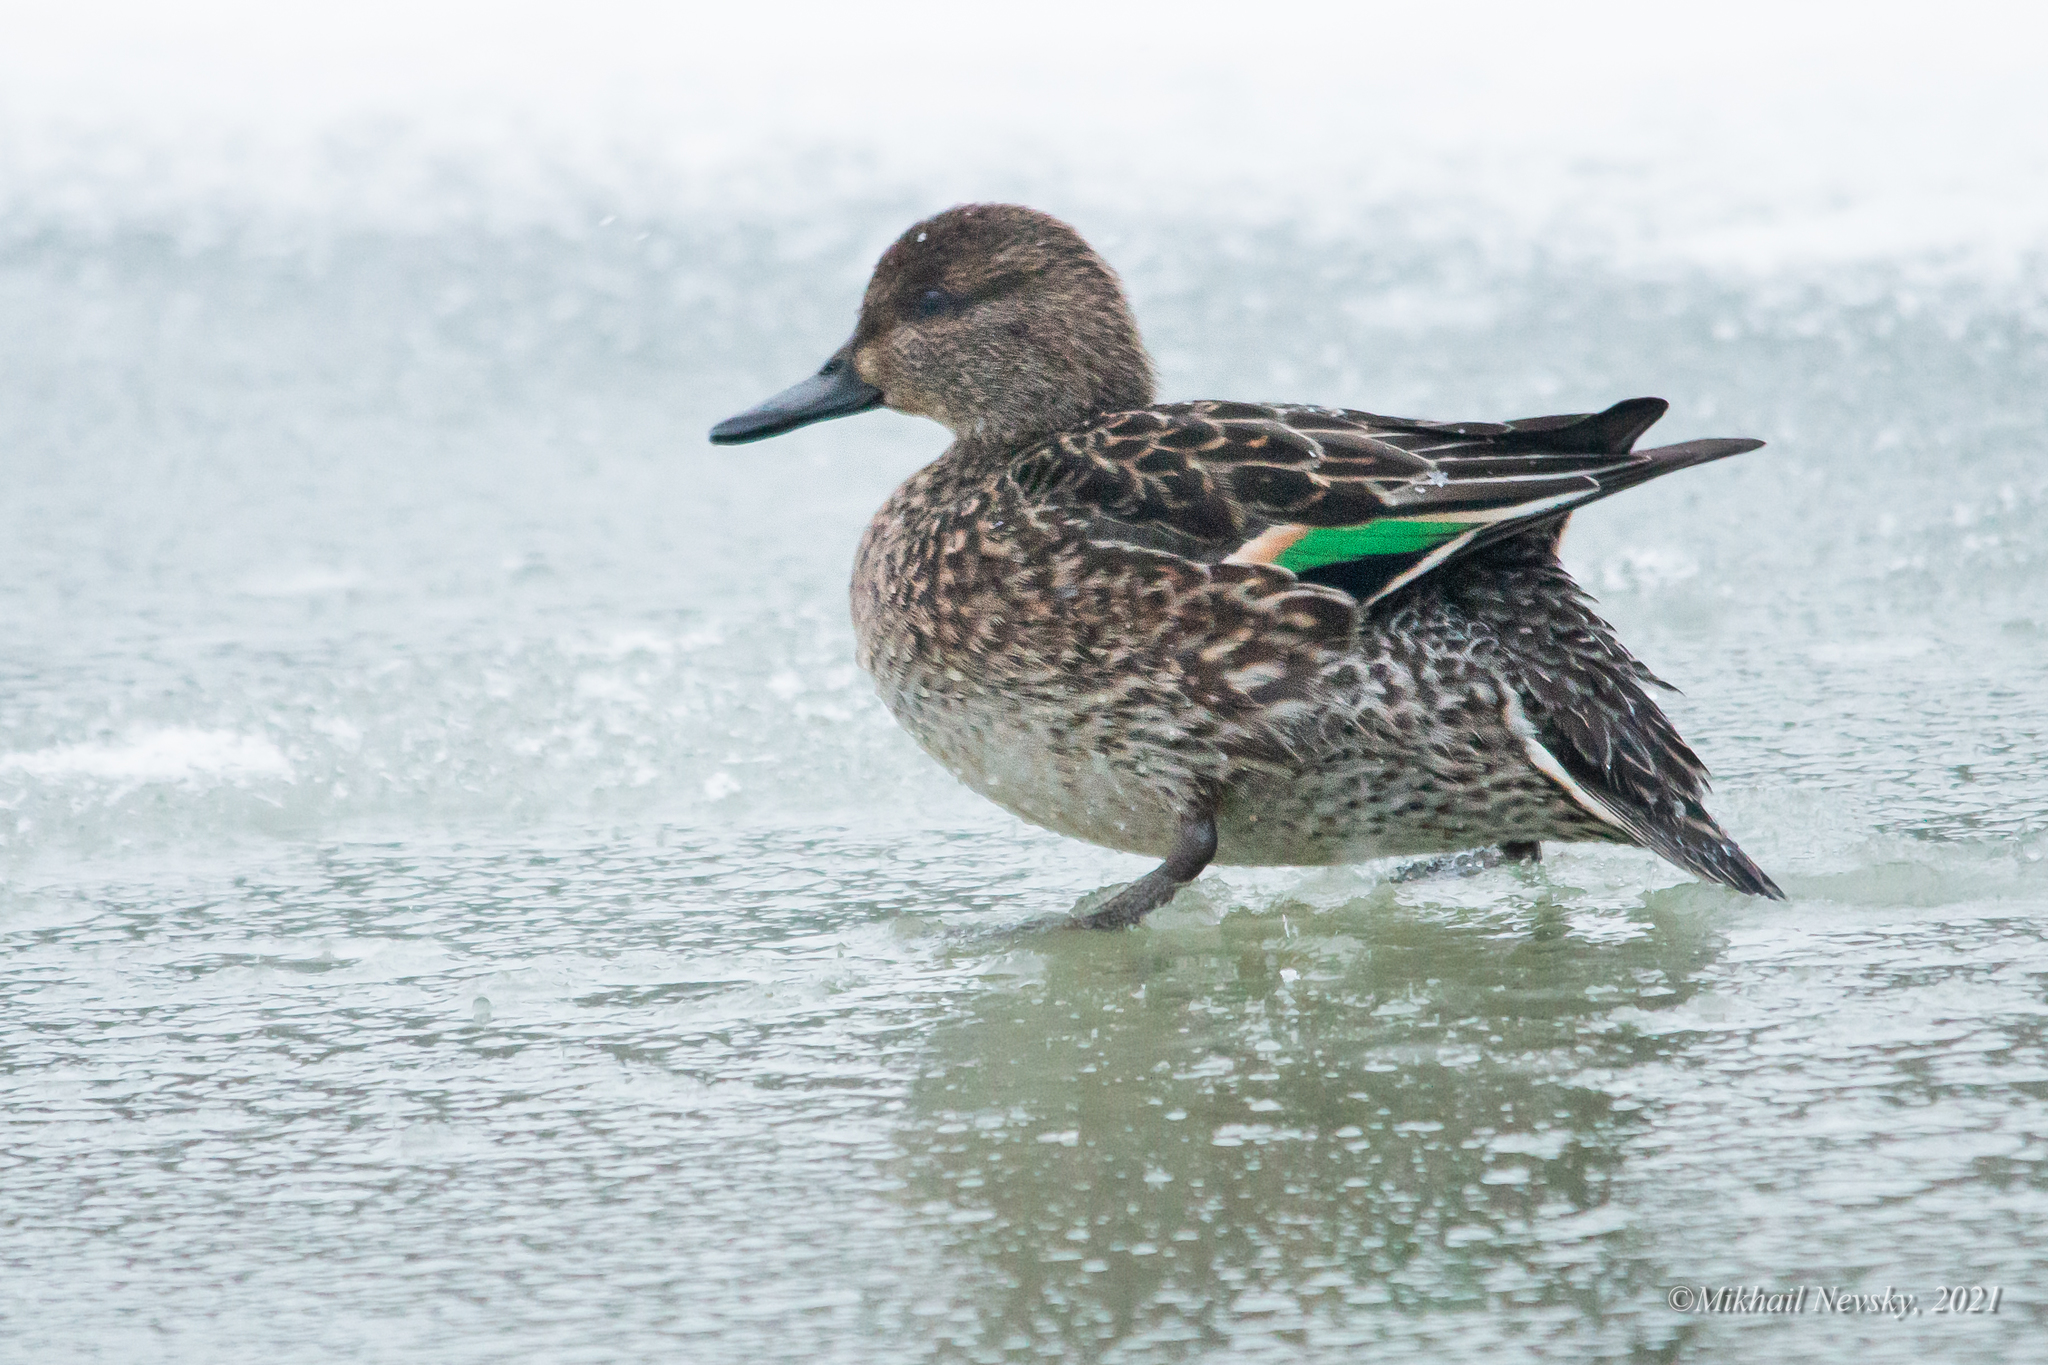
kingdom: Animalia
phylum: Chordata
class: Aves
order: Anseriformes
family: Anatidae
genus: Anas
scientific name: Anas crecca
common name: Eurasian teal
